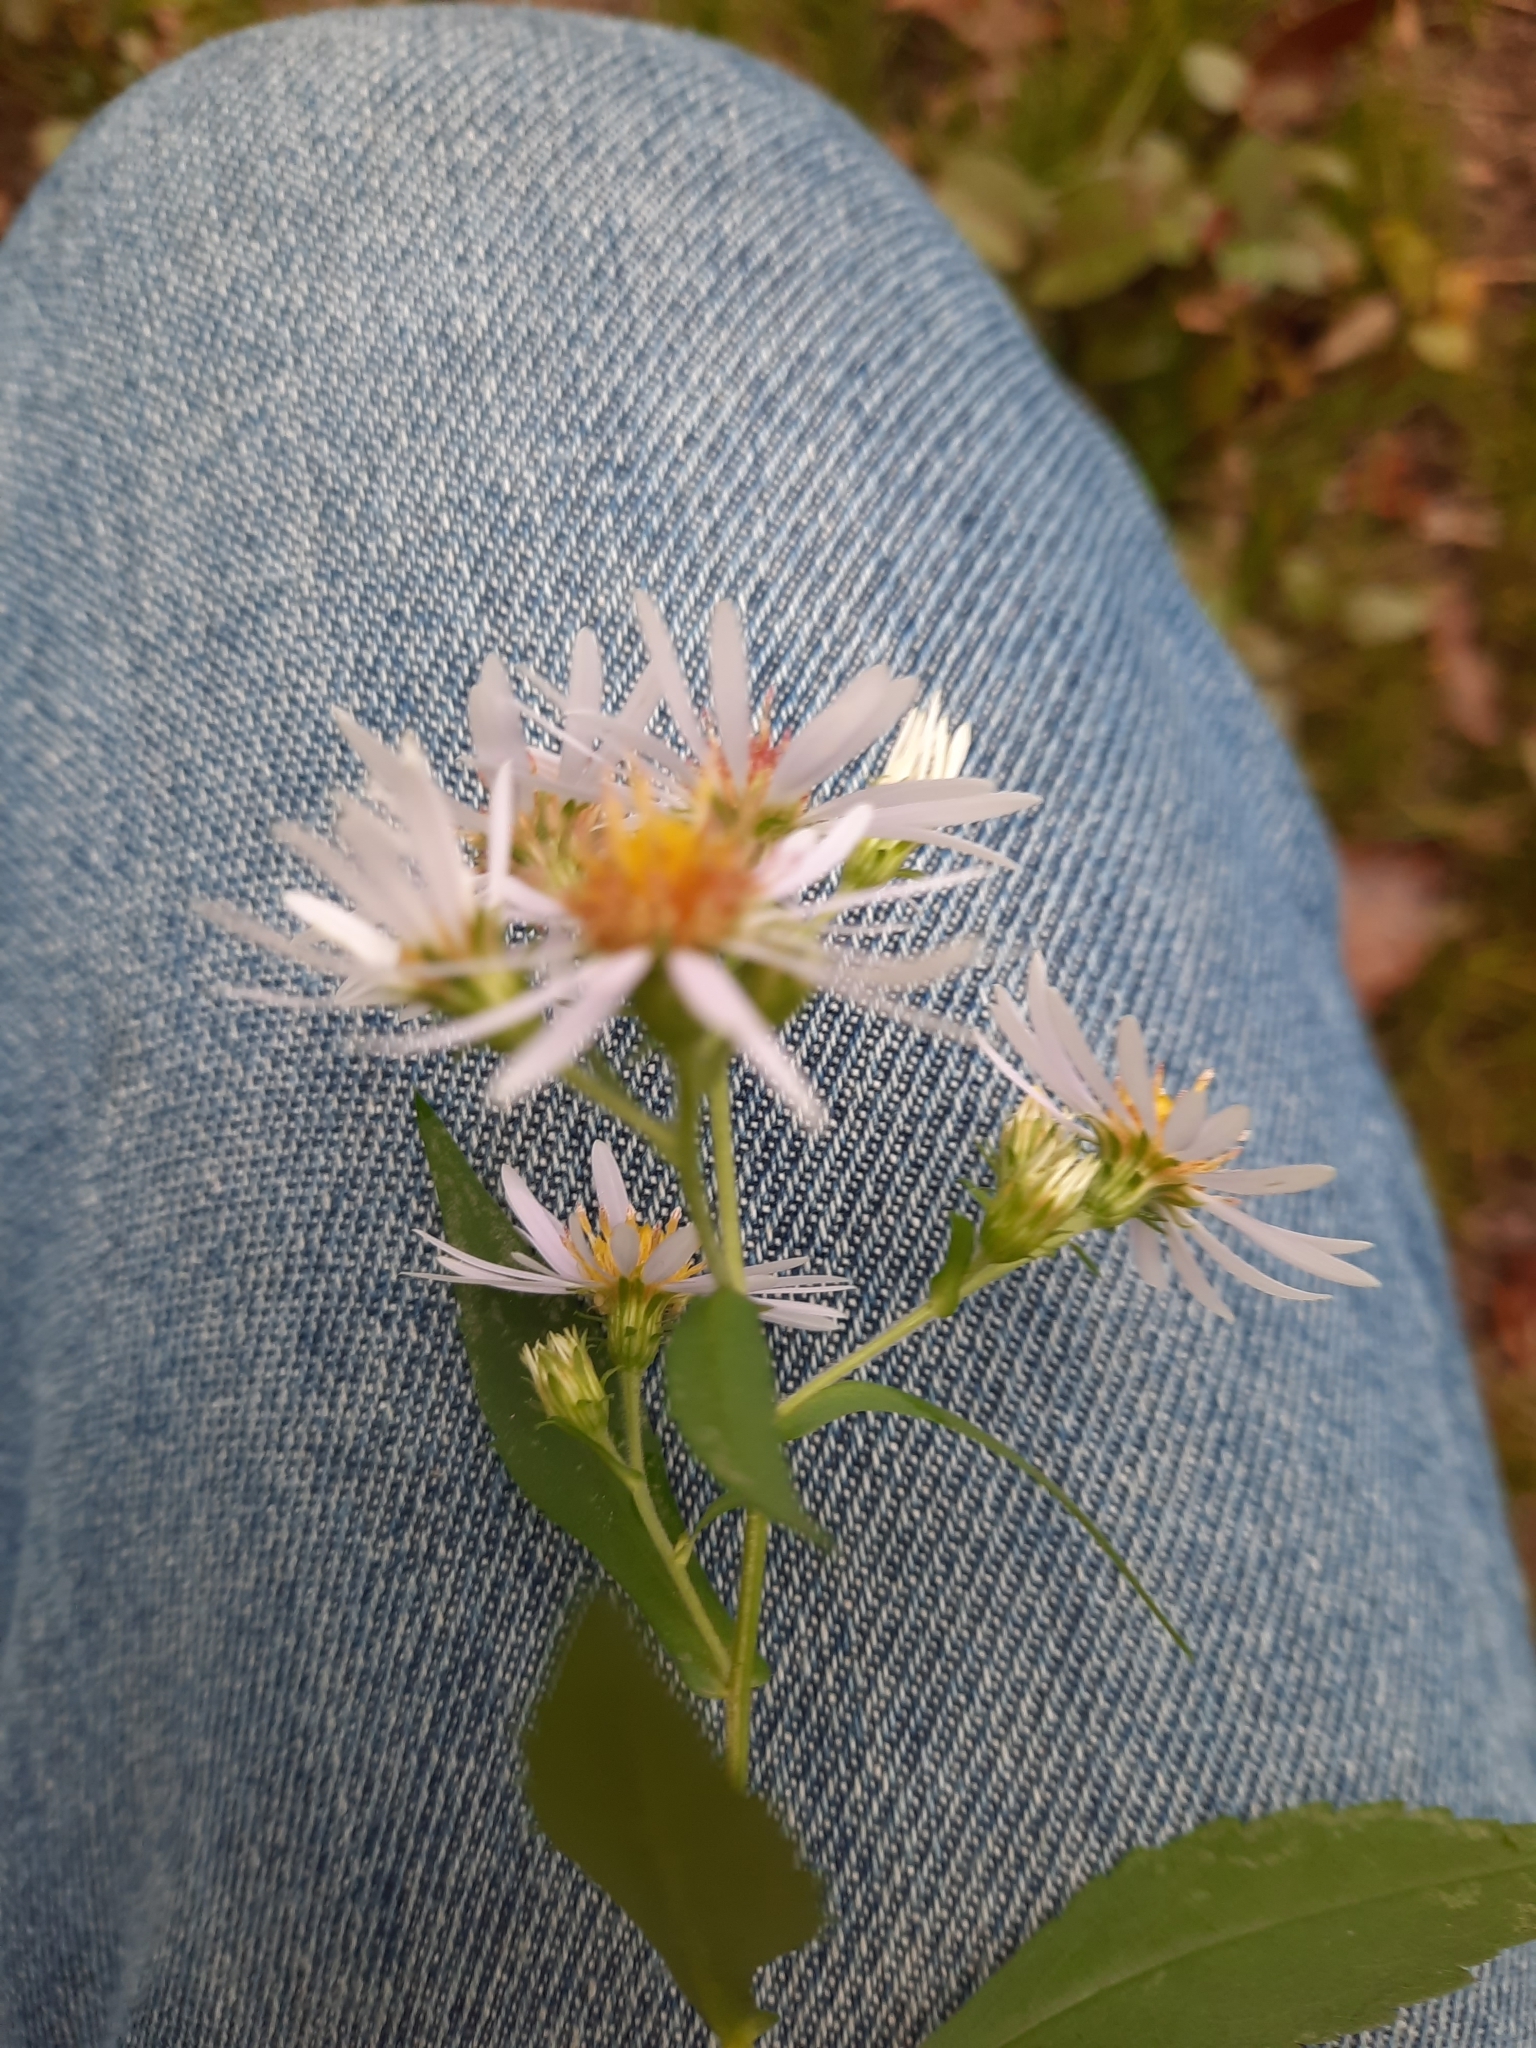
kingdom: Plantae
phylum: Tracheophyta
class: Magnoliopsida
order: Asterales
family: Asteraceae
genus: Symphyotrichum
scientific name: Symphyotrichum prenanthoides
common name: Crooked-stem aster
